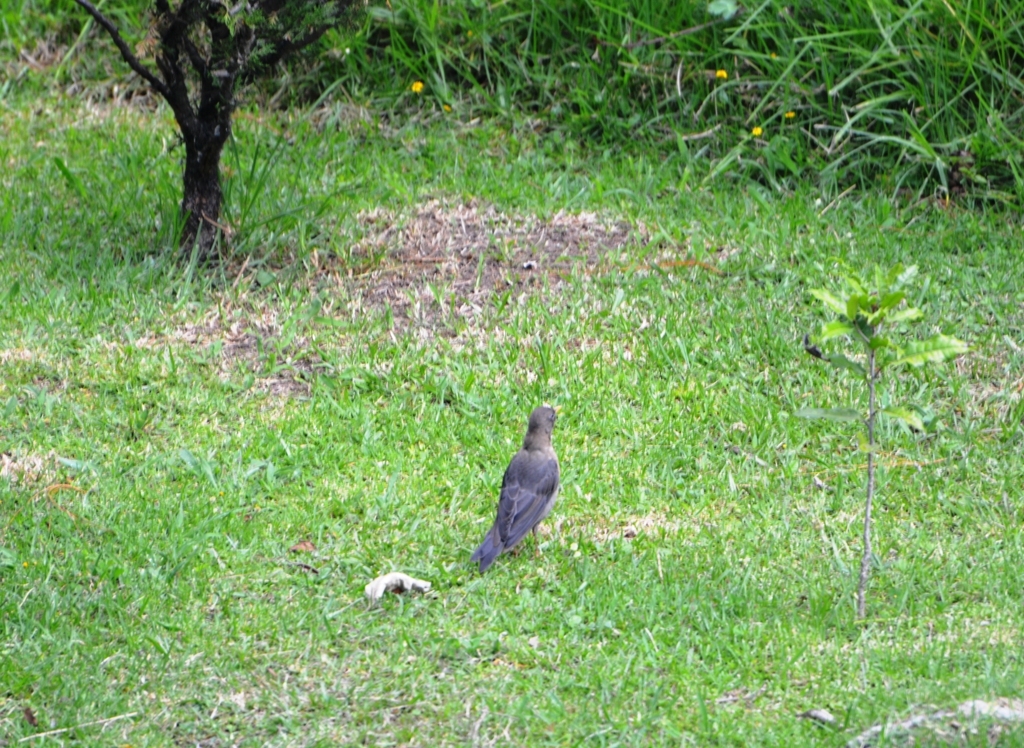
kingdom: Animalia
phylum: Chordata
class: Aves
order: Passeriformes
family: Turdidae
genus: Turdus
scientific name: Turdus rufitorques
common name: Rufous-collared thrush
